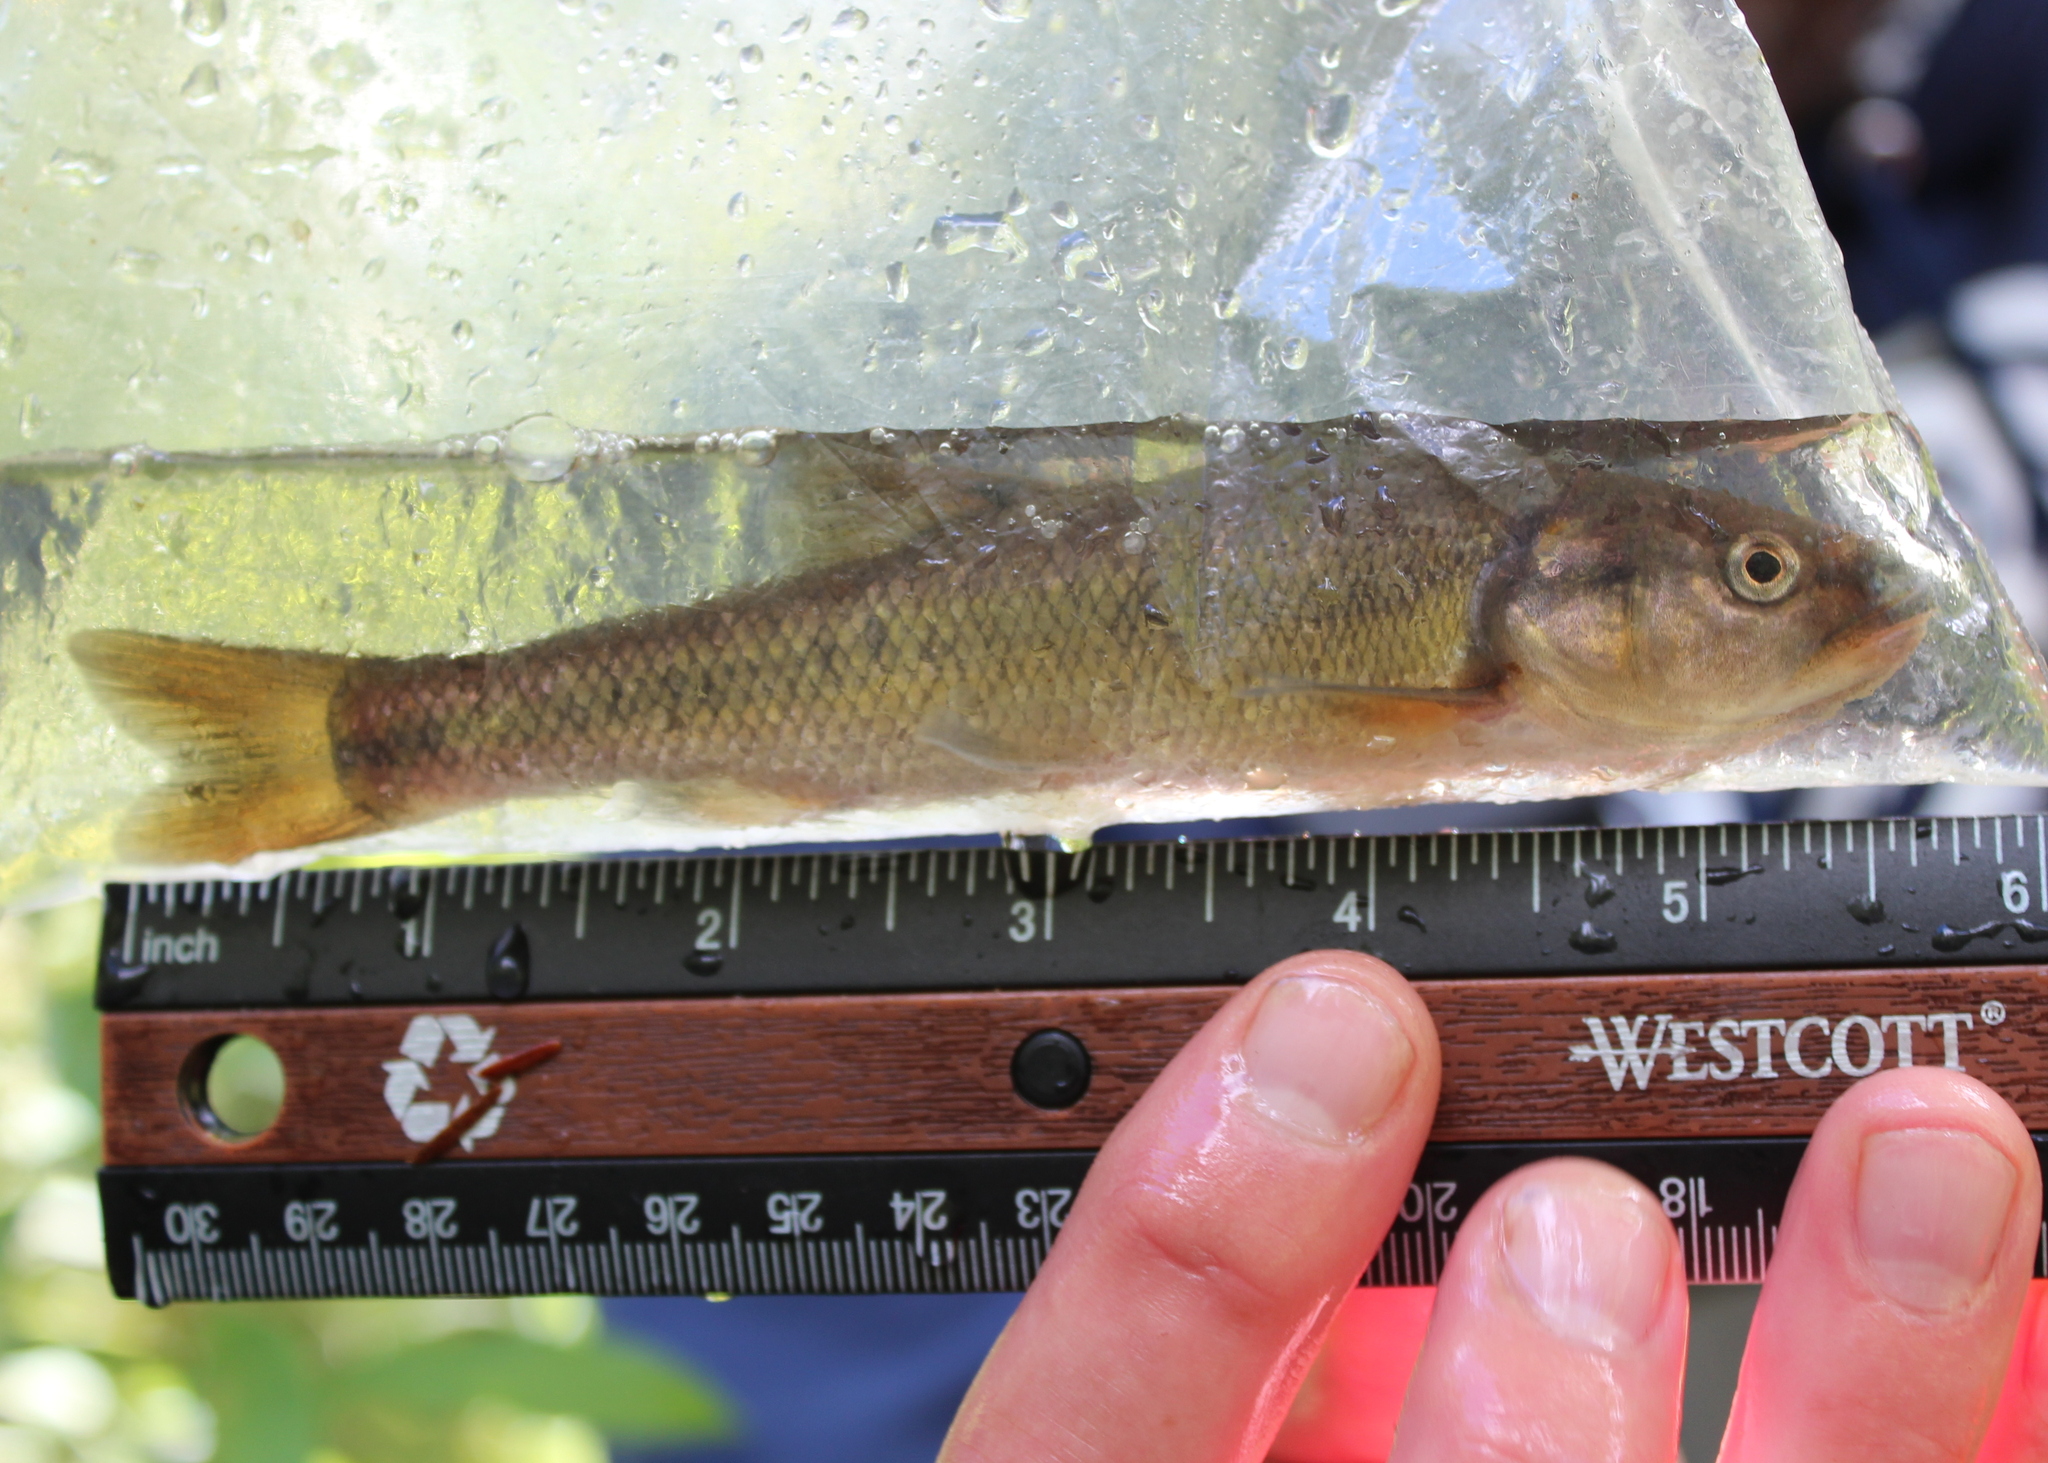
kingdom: Animalia
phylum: Chordata
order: Cypriniformes
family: Cyprinidae
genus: Semotilus
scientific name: Semotilus atromaculatus
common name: Creek chub
